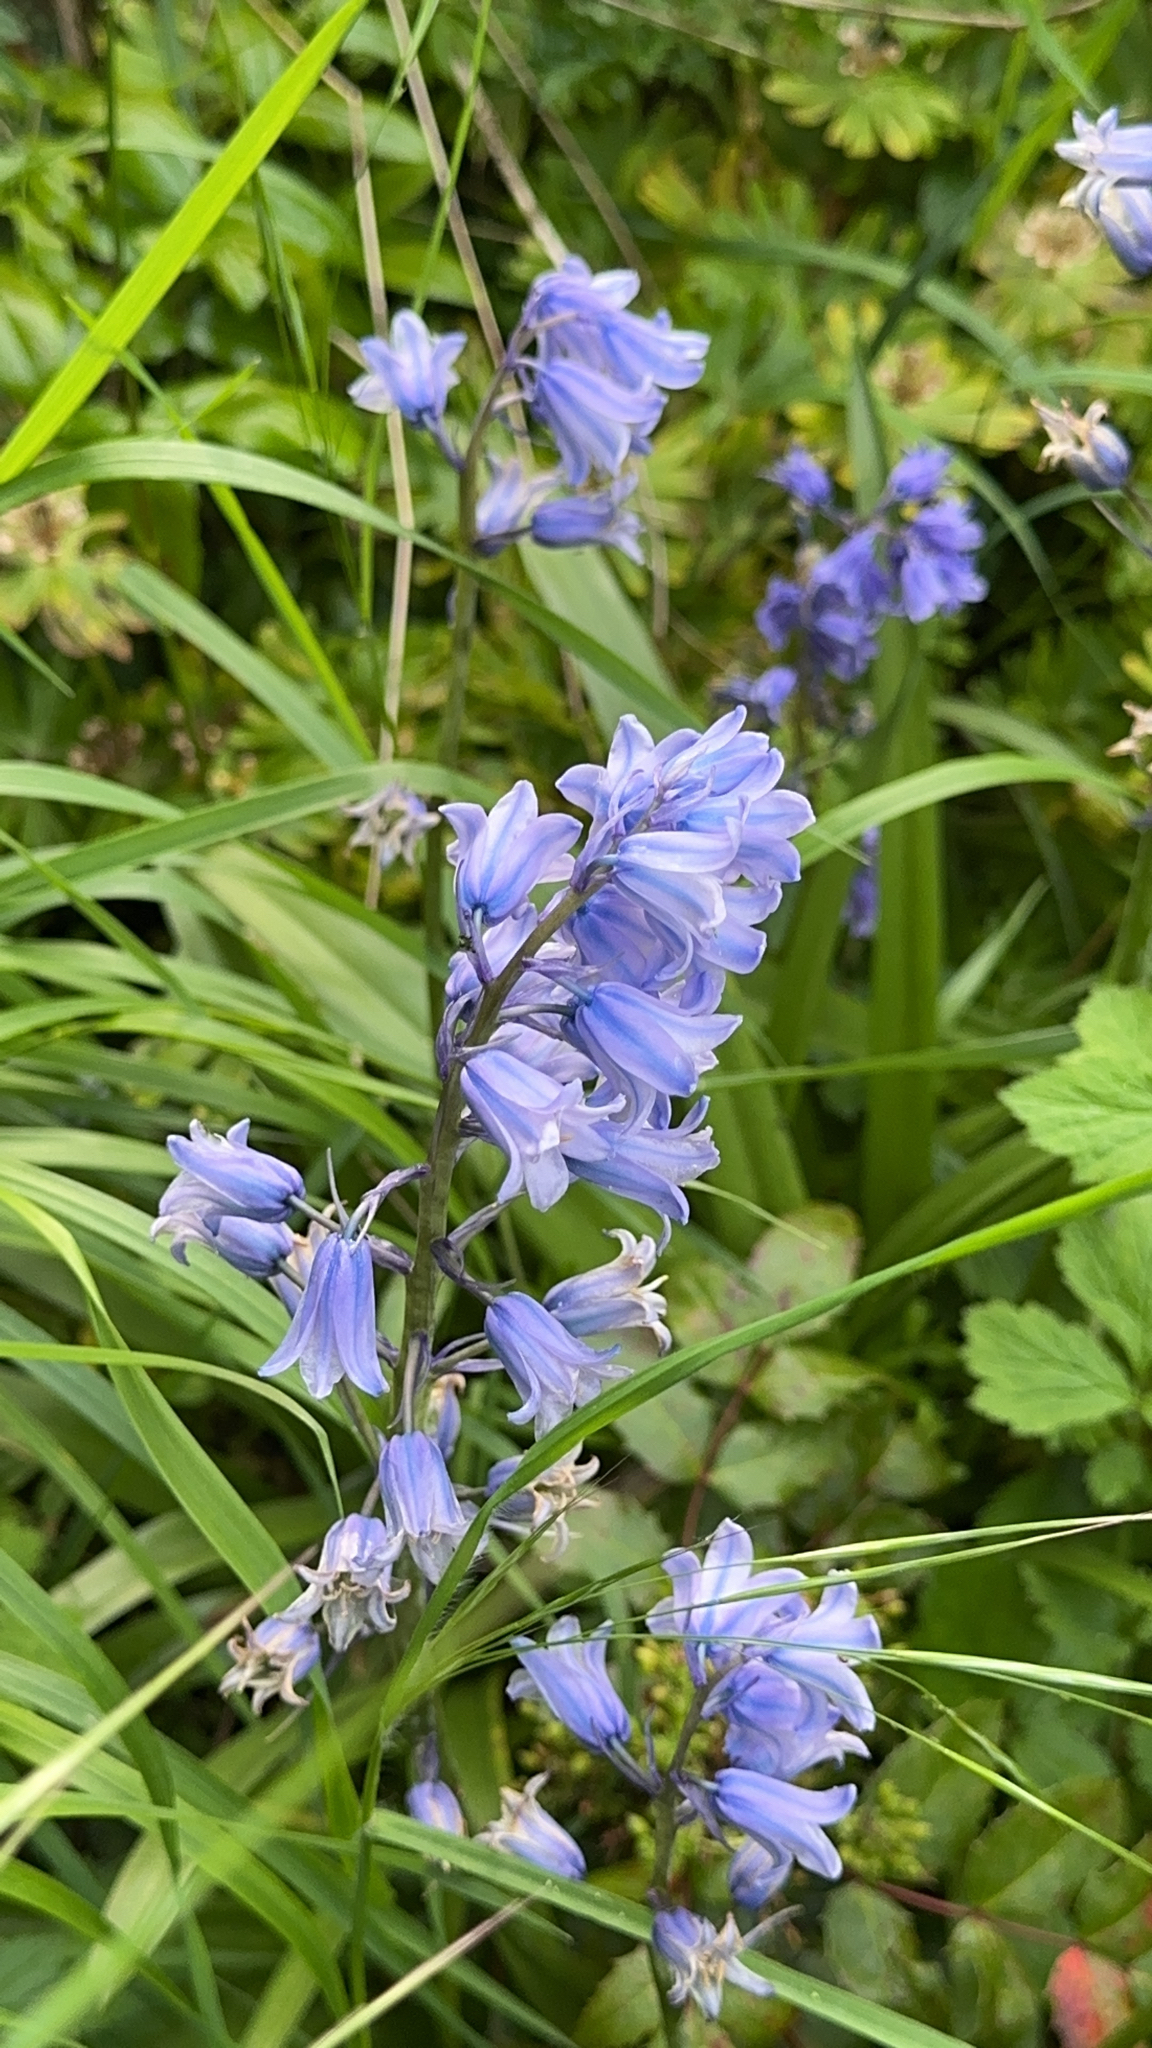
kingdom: Plantae
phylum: Tracheophyta
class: Liliopsida
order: Asparagales
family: Asparagaceae
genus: Hyacinthoides
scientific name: Hyacinthoides hispanica
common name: Spanish bluebell
